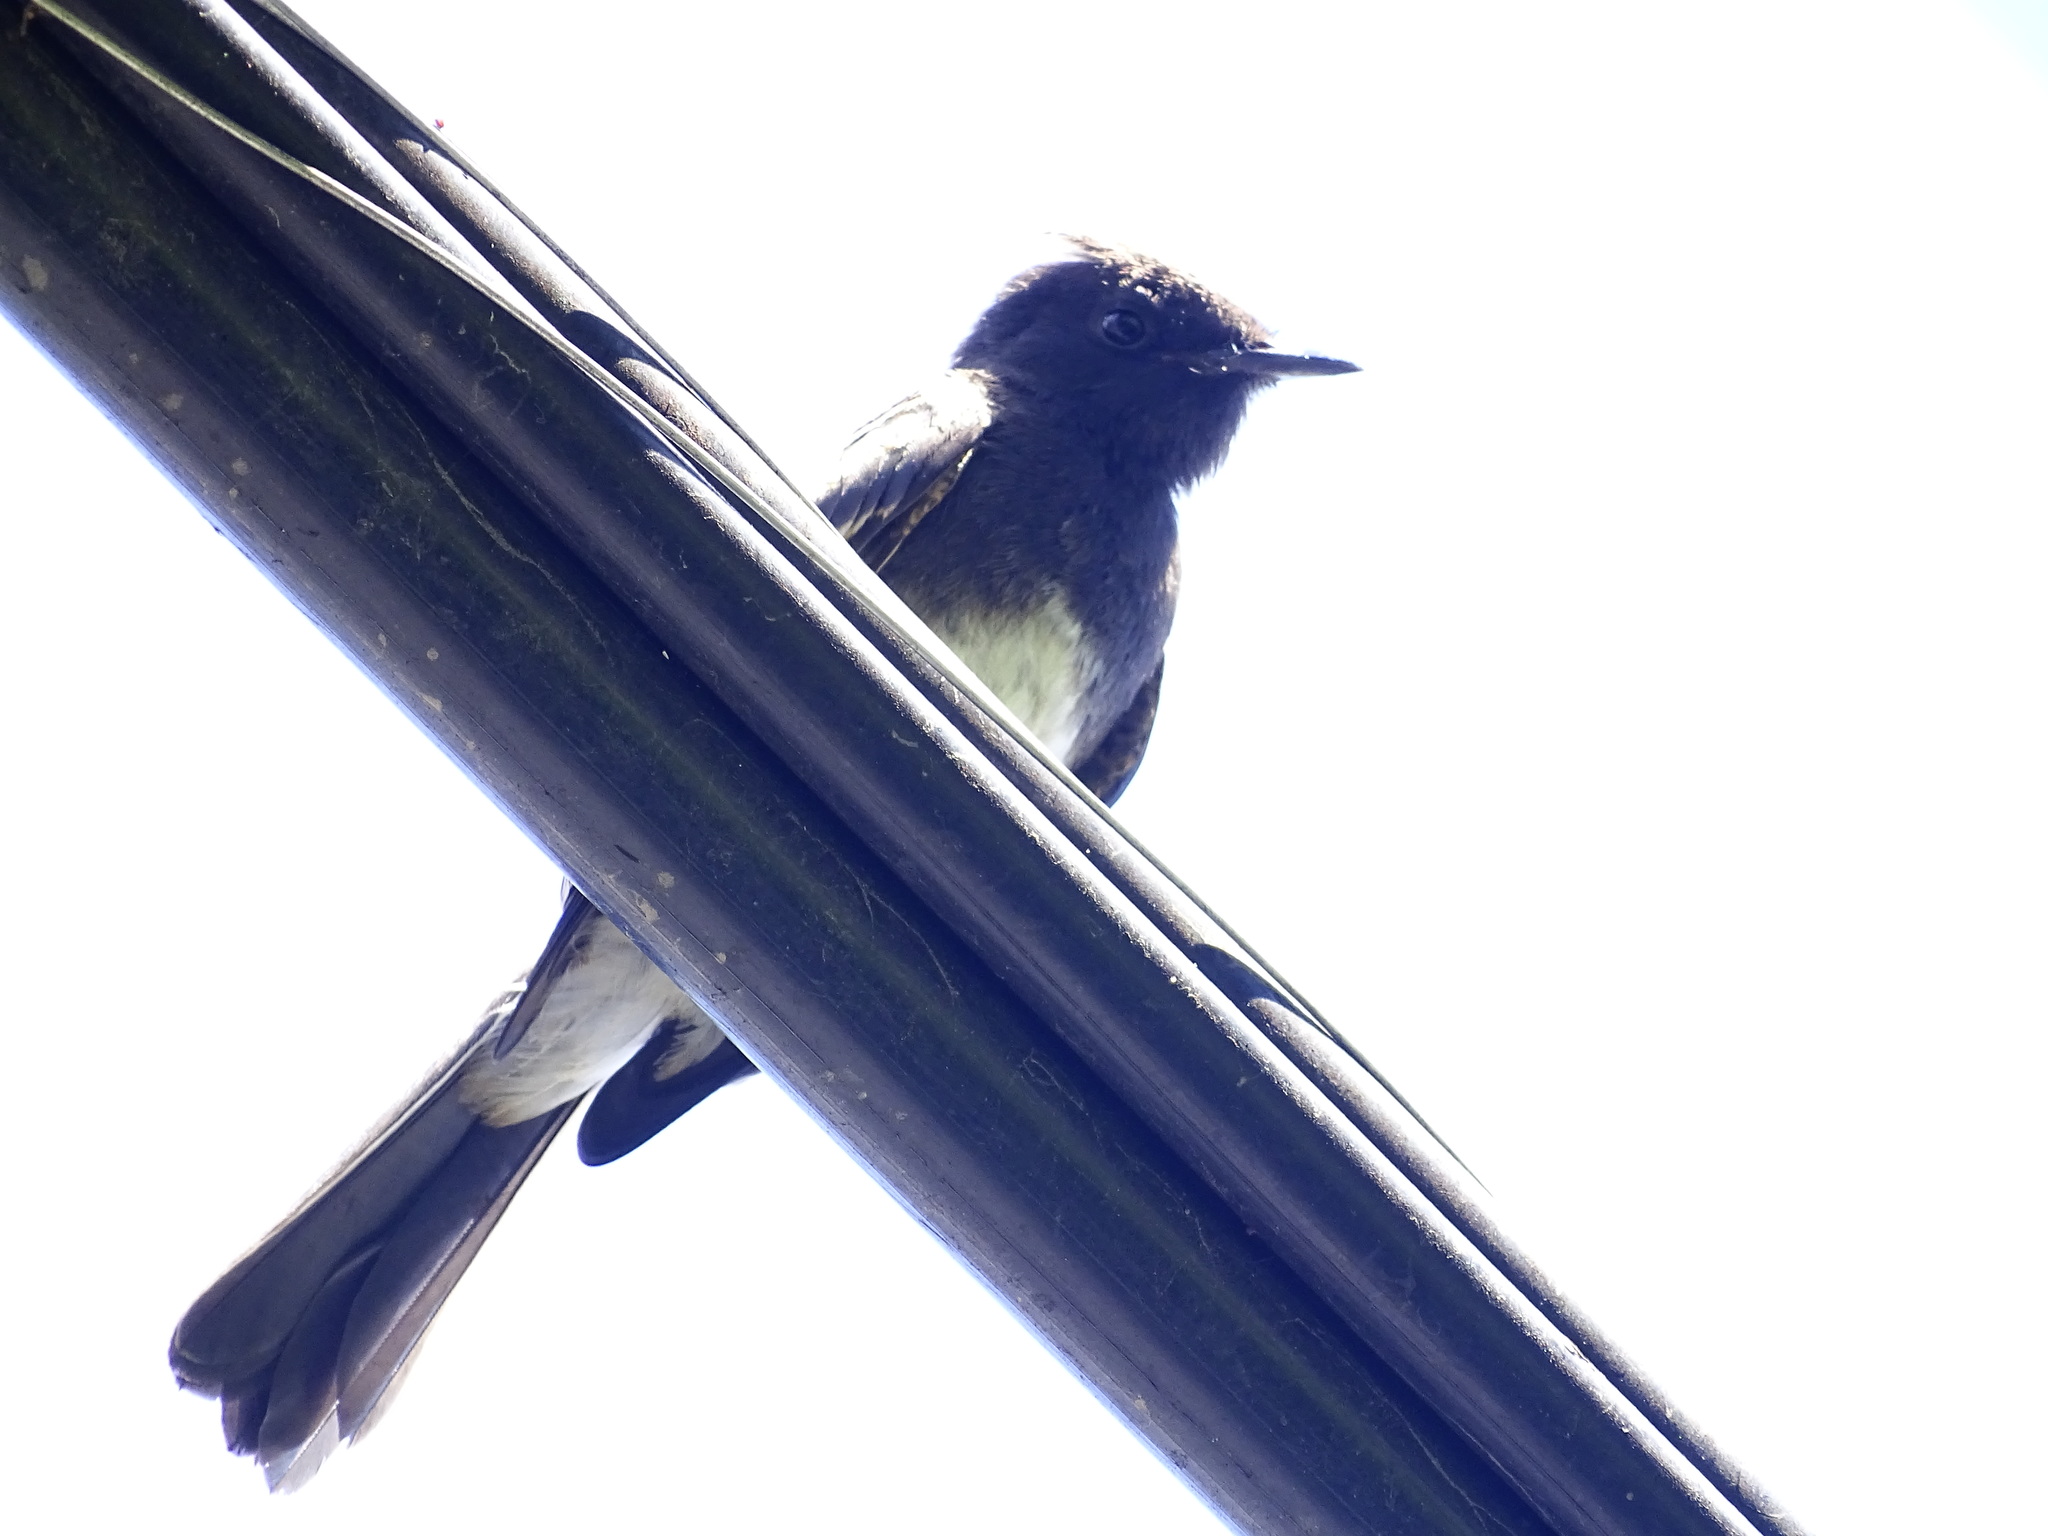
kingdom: Animalia
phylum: Chordata
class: Aves
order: Passeriformes
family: Tyrannidae
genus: Sayornis
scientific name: Sayornis nigricans
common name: Black phoebe
